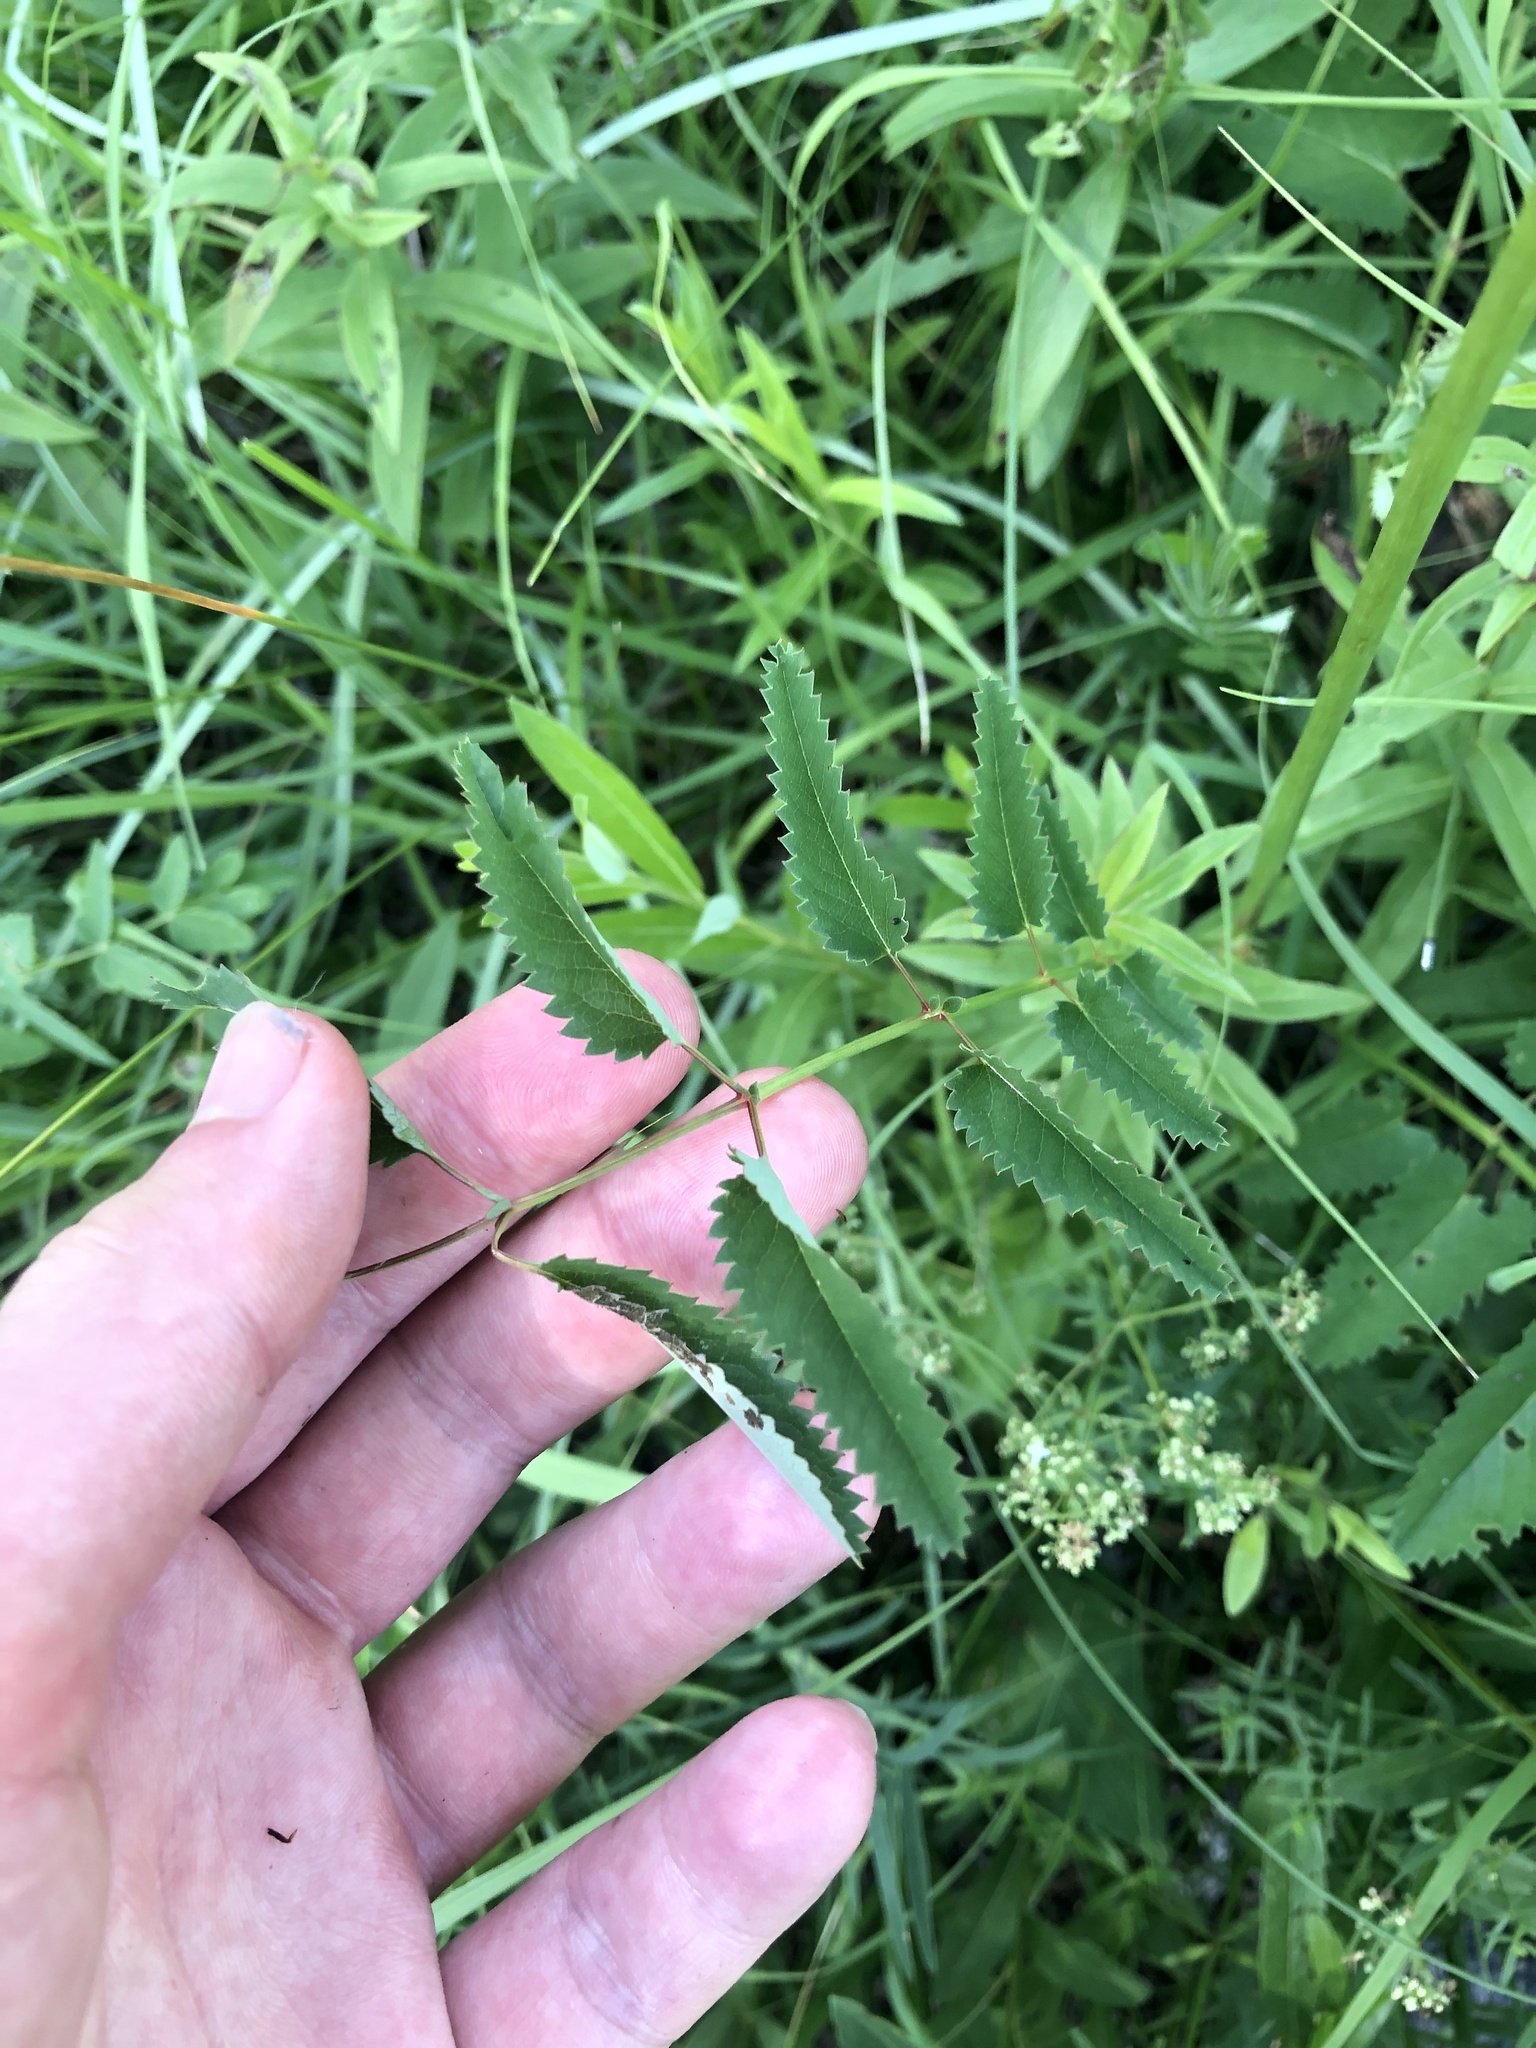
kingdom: Plantae
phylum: Tracheophyta
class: Magnoliopsida
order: Rosales
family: Rosaceae
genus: Sanguisorba
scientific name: Sanguisorba officinalis
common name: Great burnet
